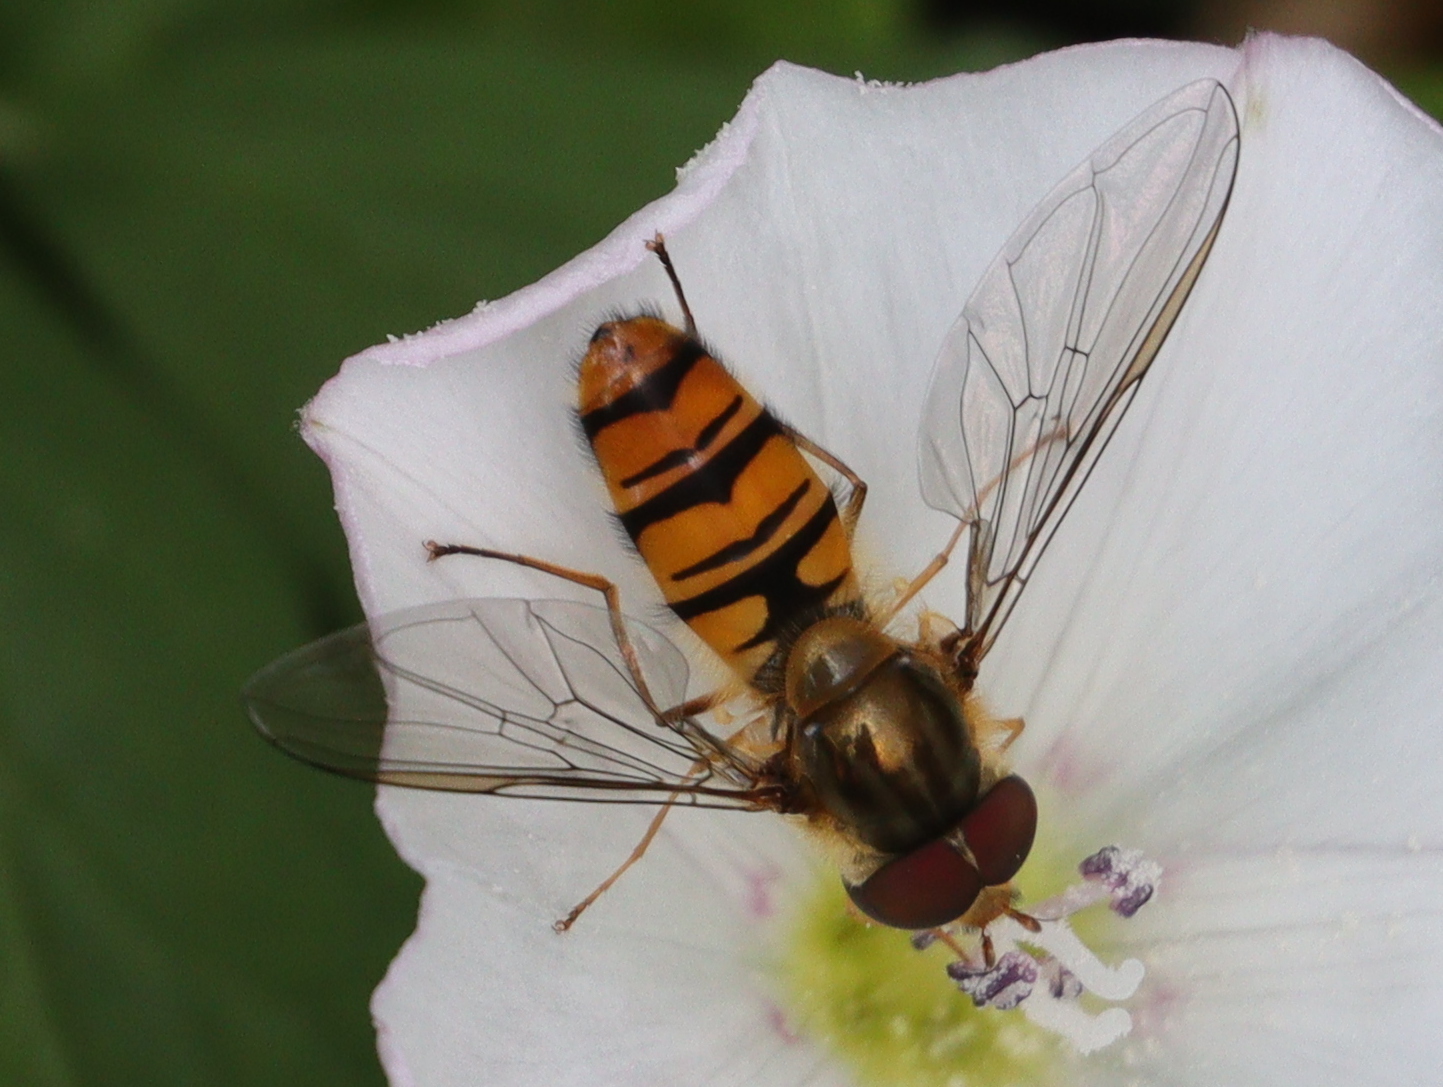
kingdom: Animalia
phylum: Arthropoda
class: Insecta
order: Diptera
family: Syrphidae
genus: Episyrphus
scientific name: Episyrphus balteatus
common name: Marmalade hoverfly
